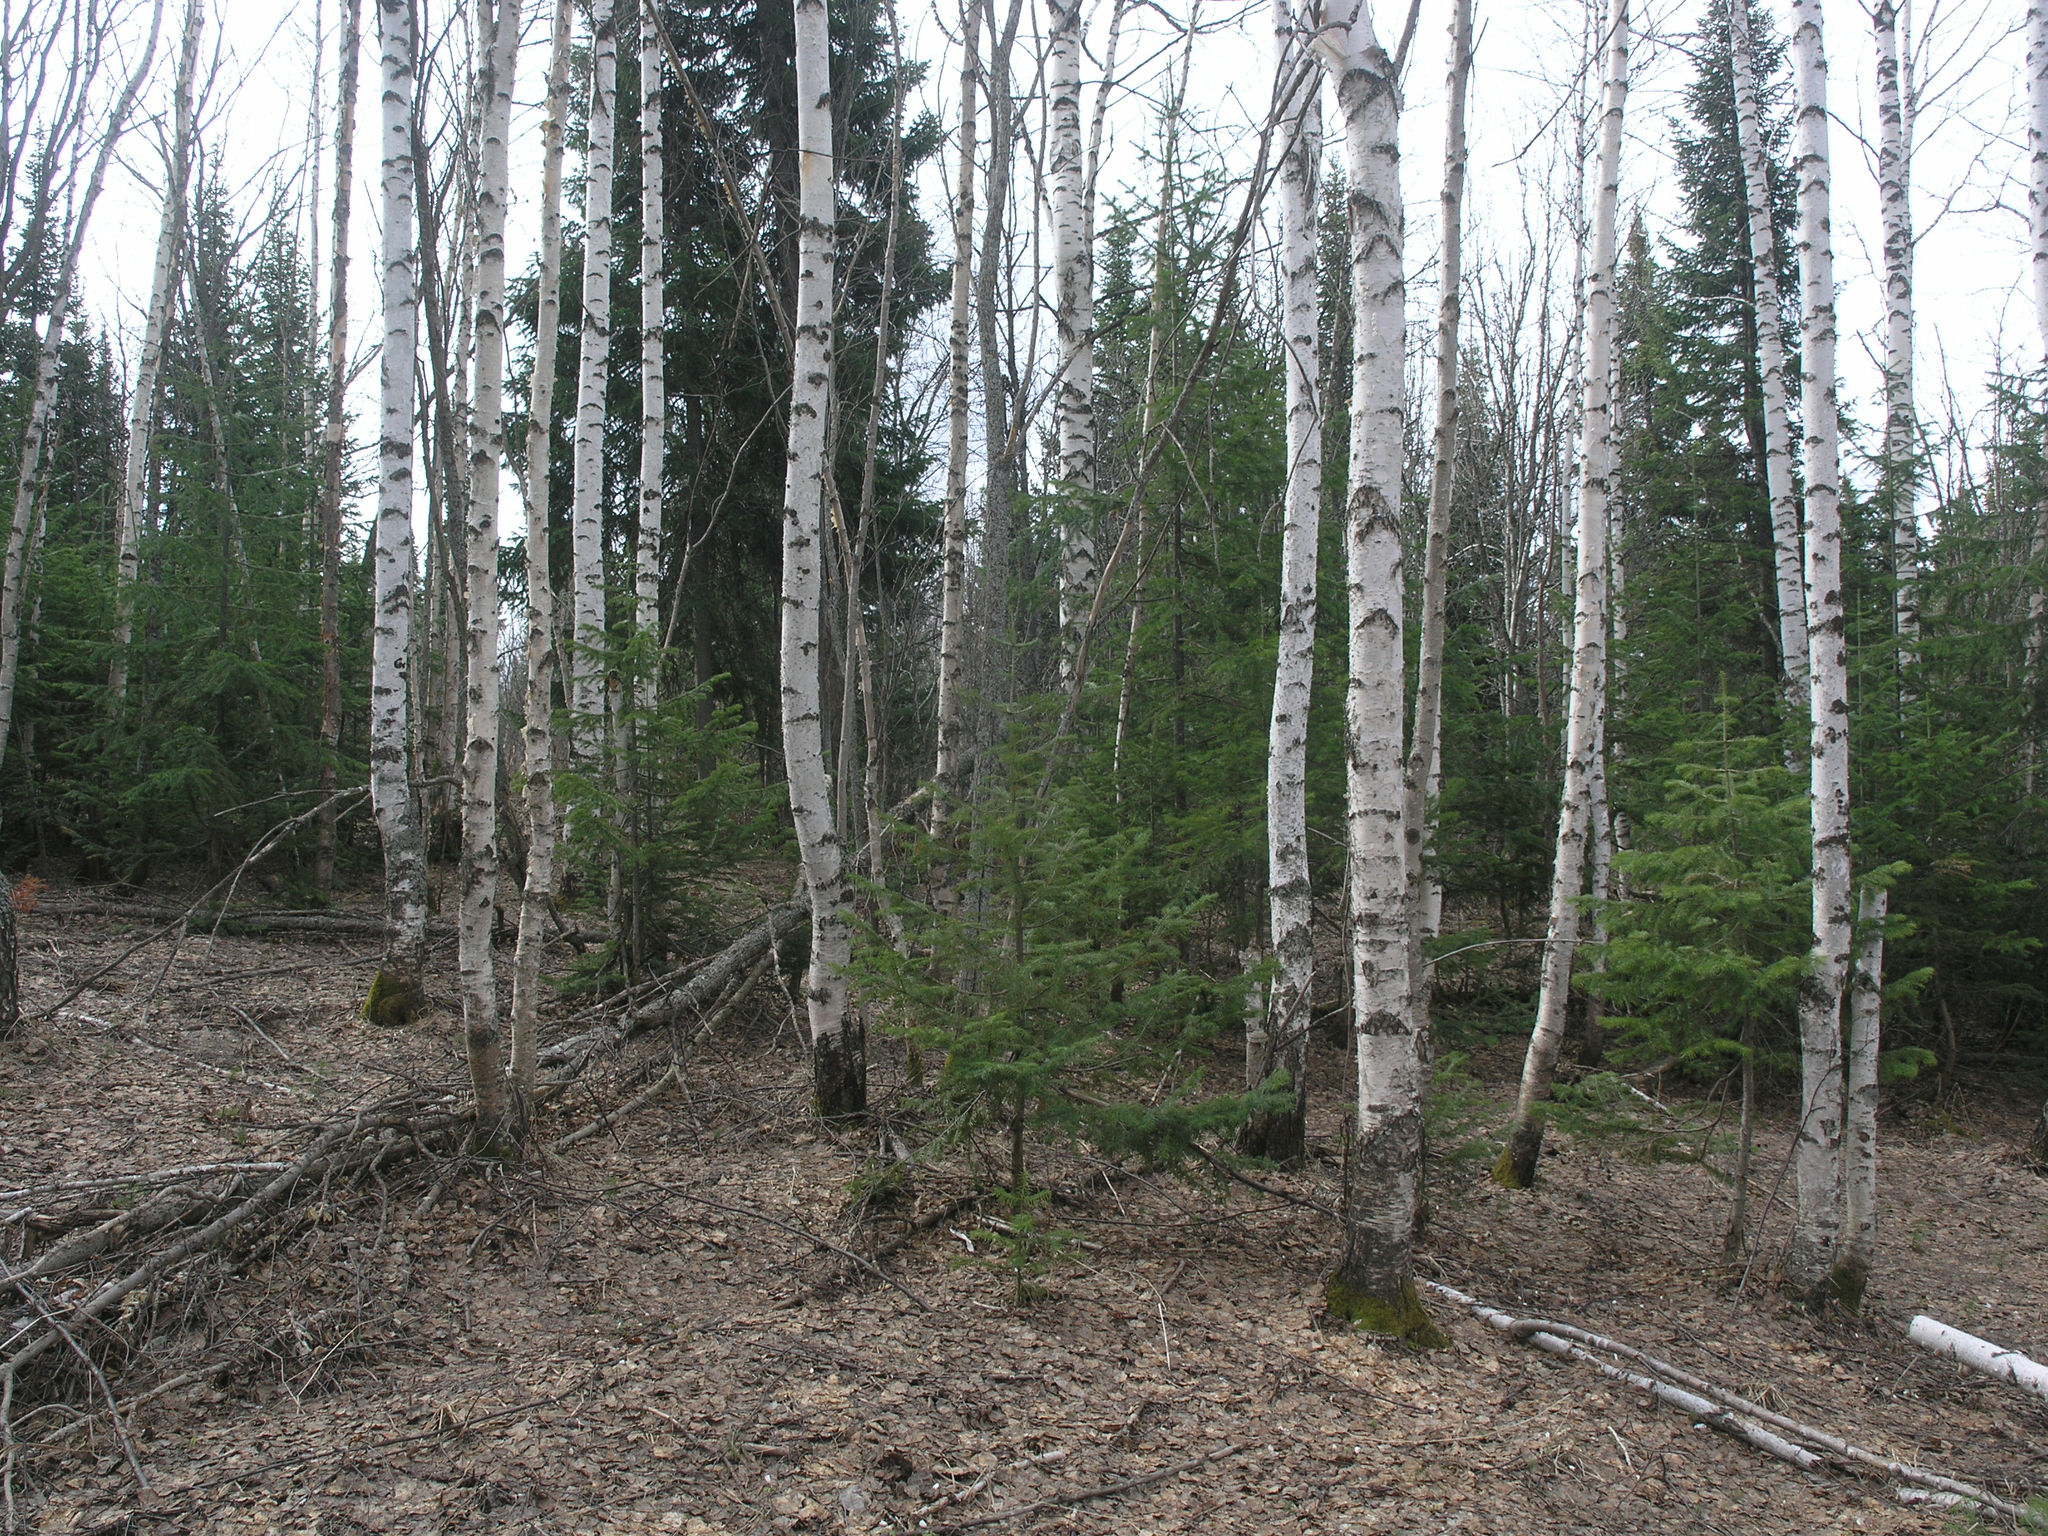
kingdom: Plantae
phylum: Tracheophyta
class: Magnoliopsida
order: Fagales
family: Betulaceae
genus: Betula
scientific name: Betula pendula
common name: Silver birch
